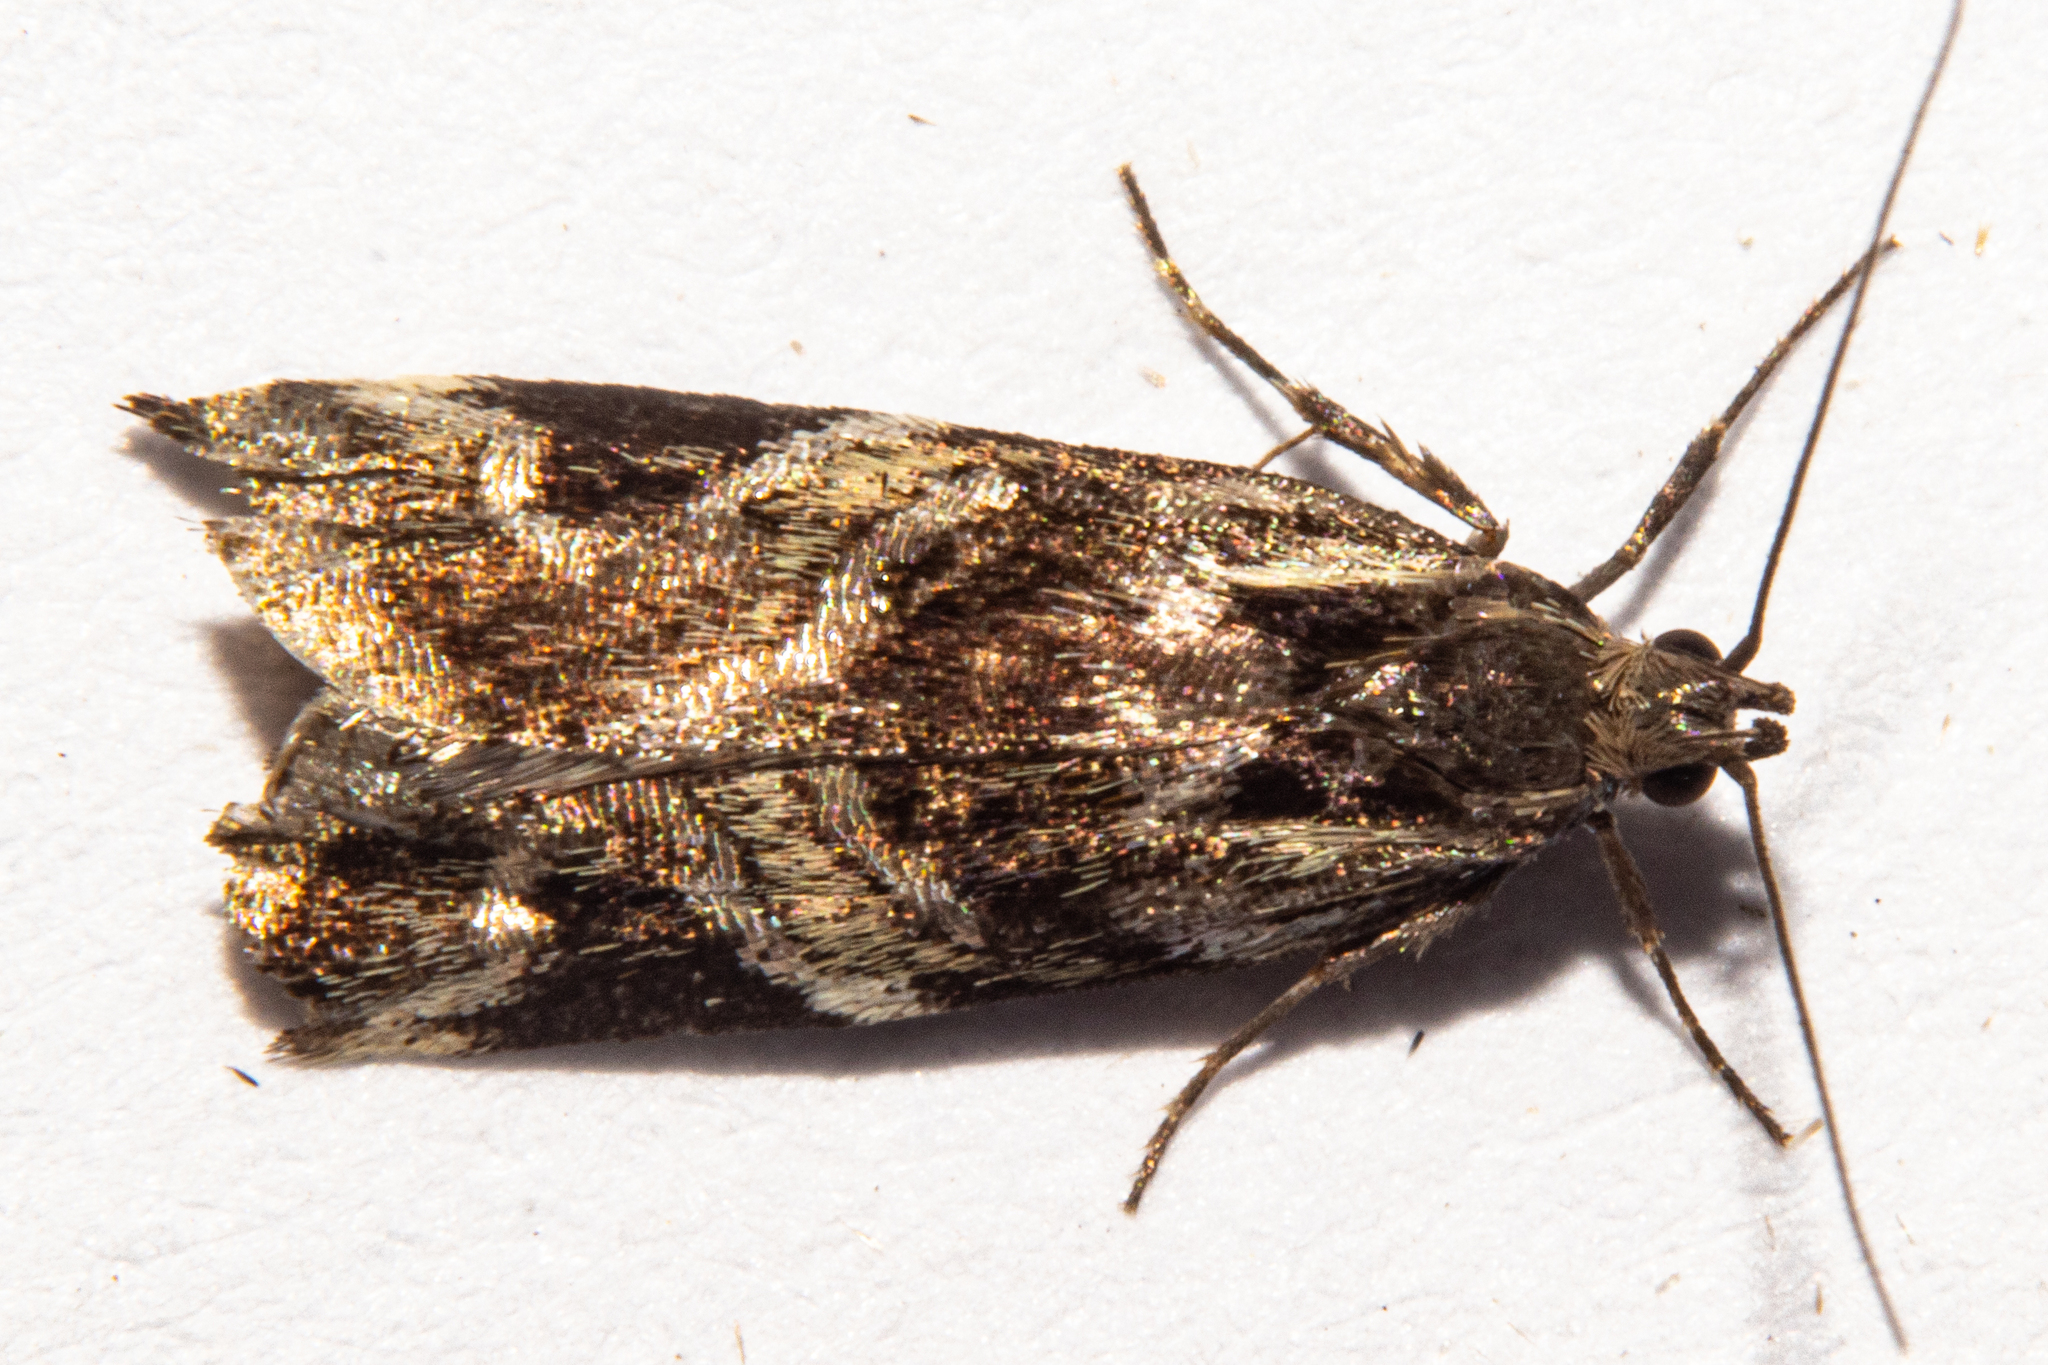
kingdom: Animalia
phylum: Arthropoda
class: Insecta
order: Lepidoptera
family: Oecophoridae
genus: Hierodoris
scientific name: Hierodoris s-fractum
